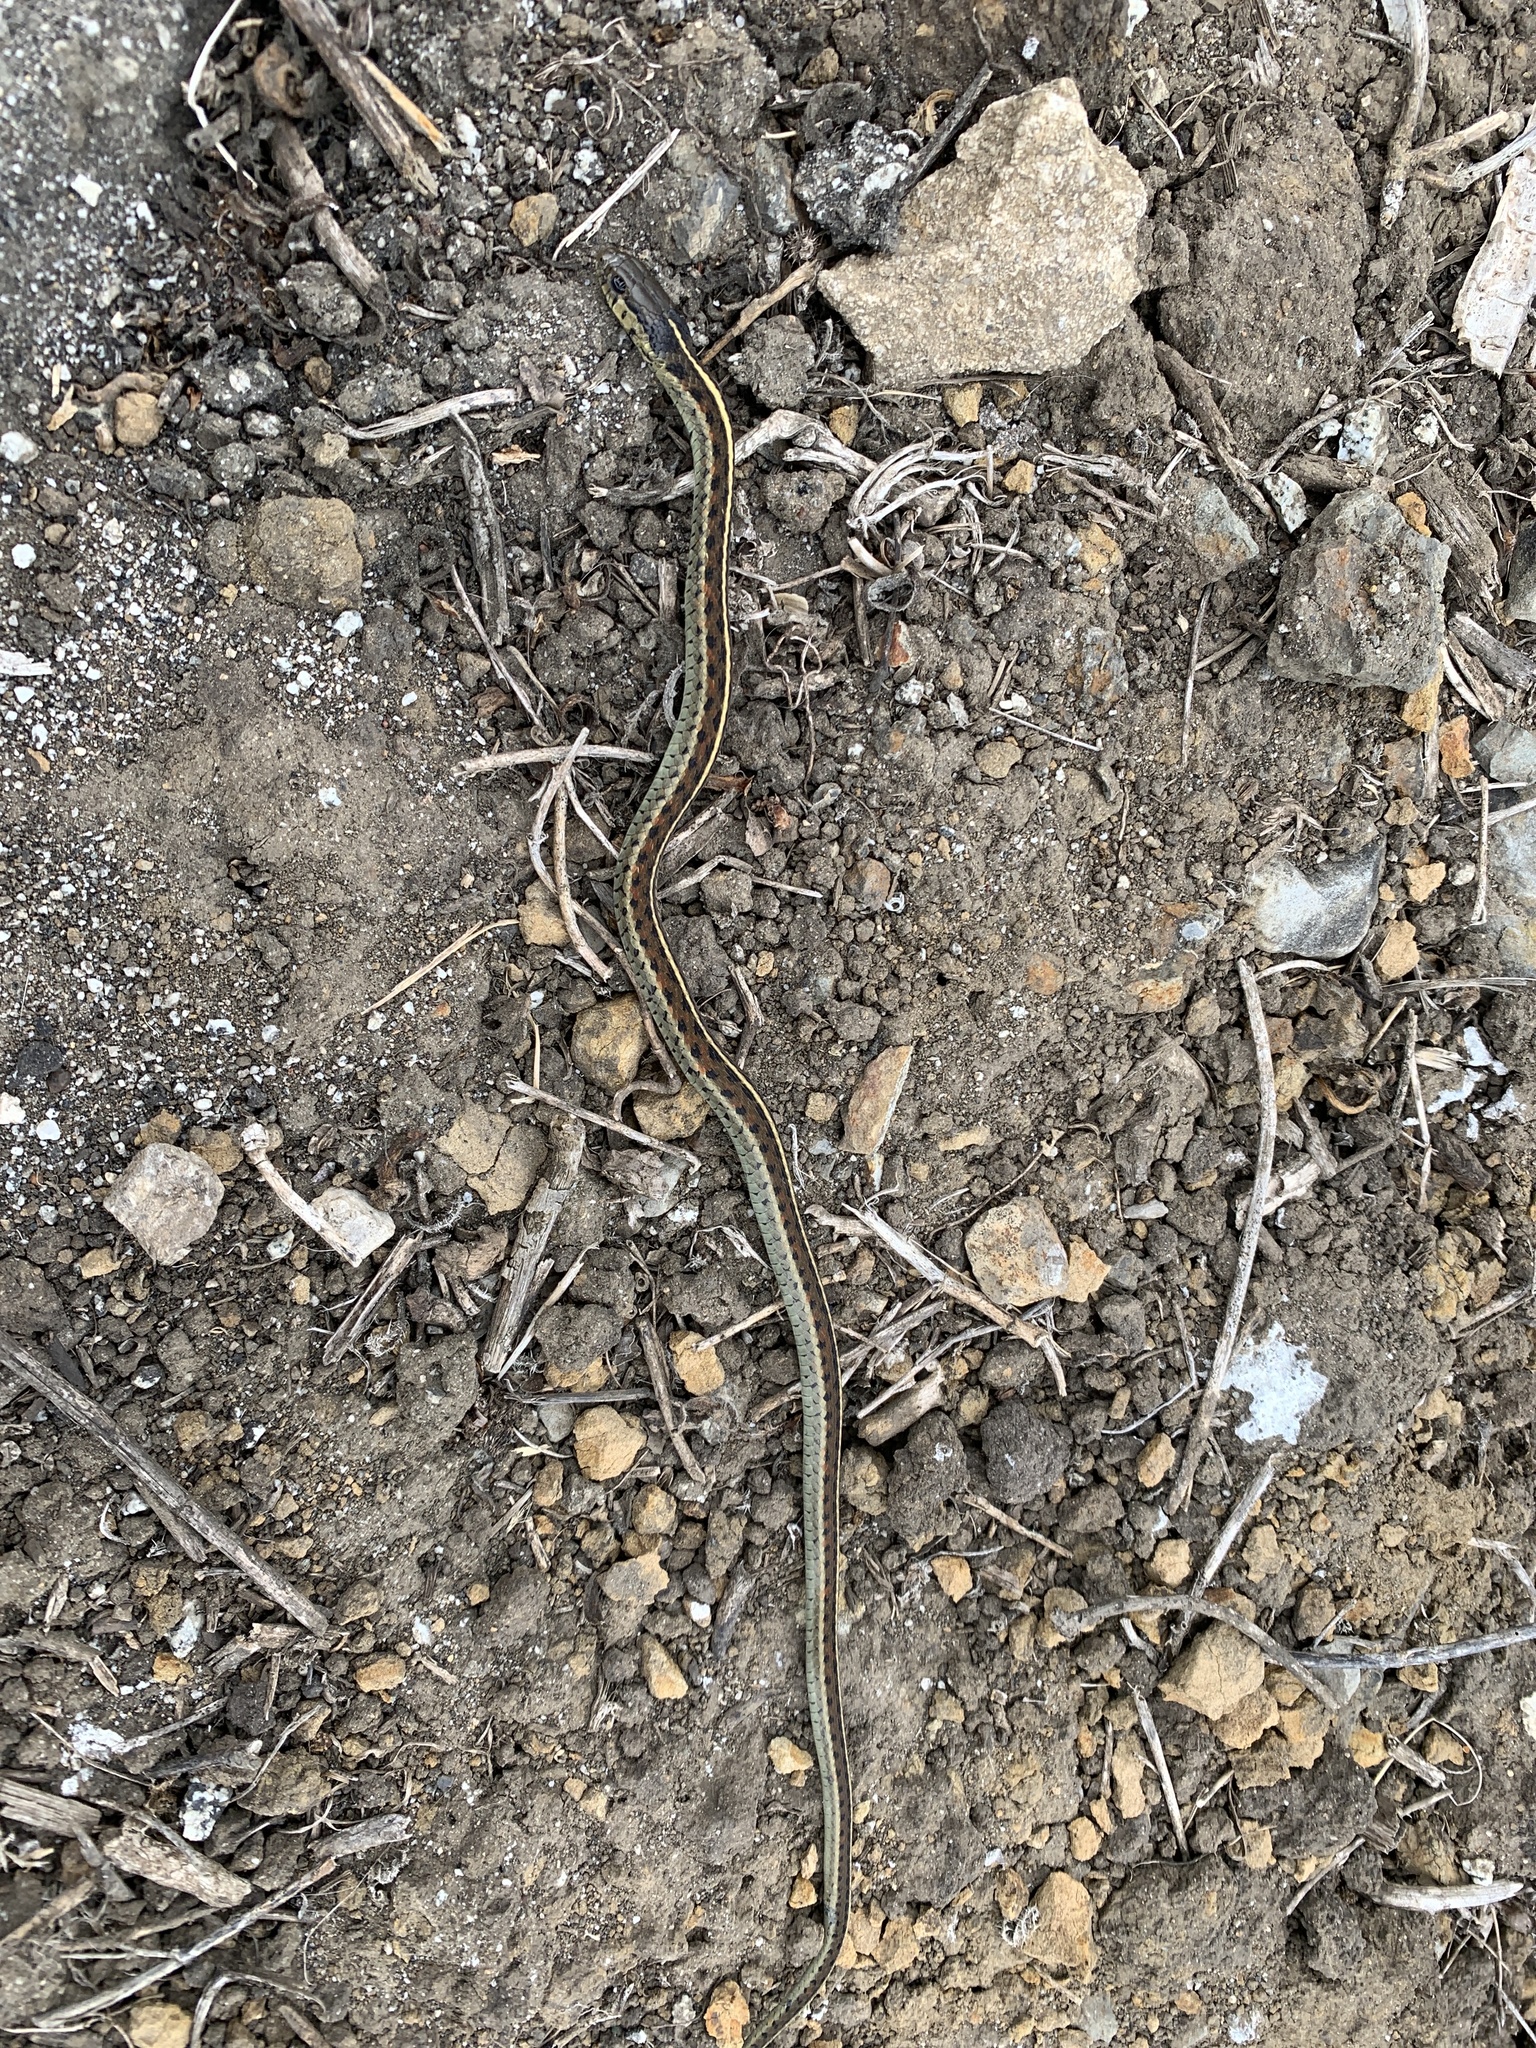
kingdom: Animalia
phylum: Chordata
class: Squamata
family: Colubridae
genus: Thamnophis
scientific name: Thamnophis elegans
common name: Western terrestrial garter snake
